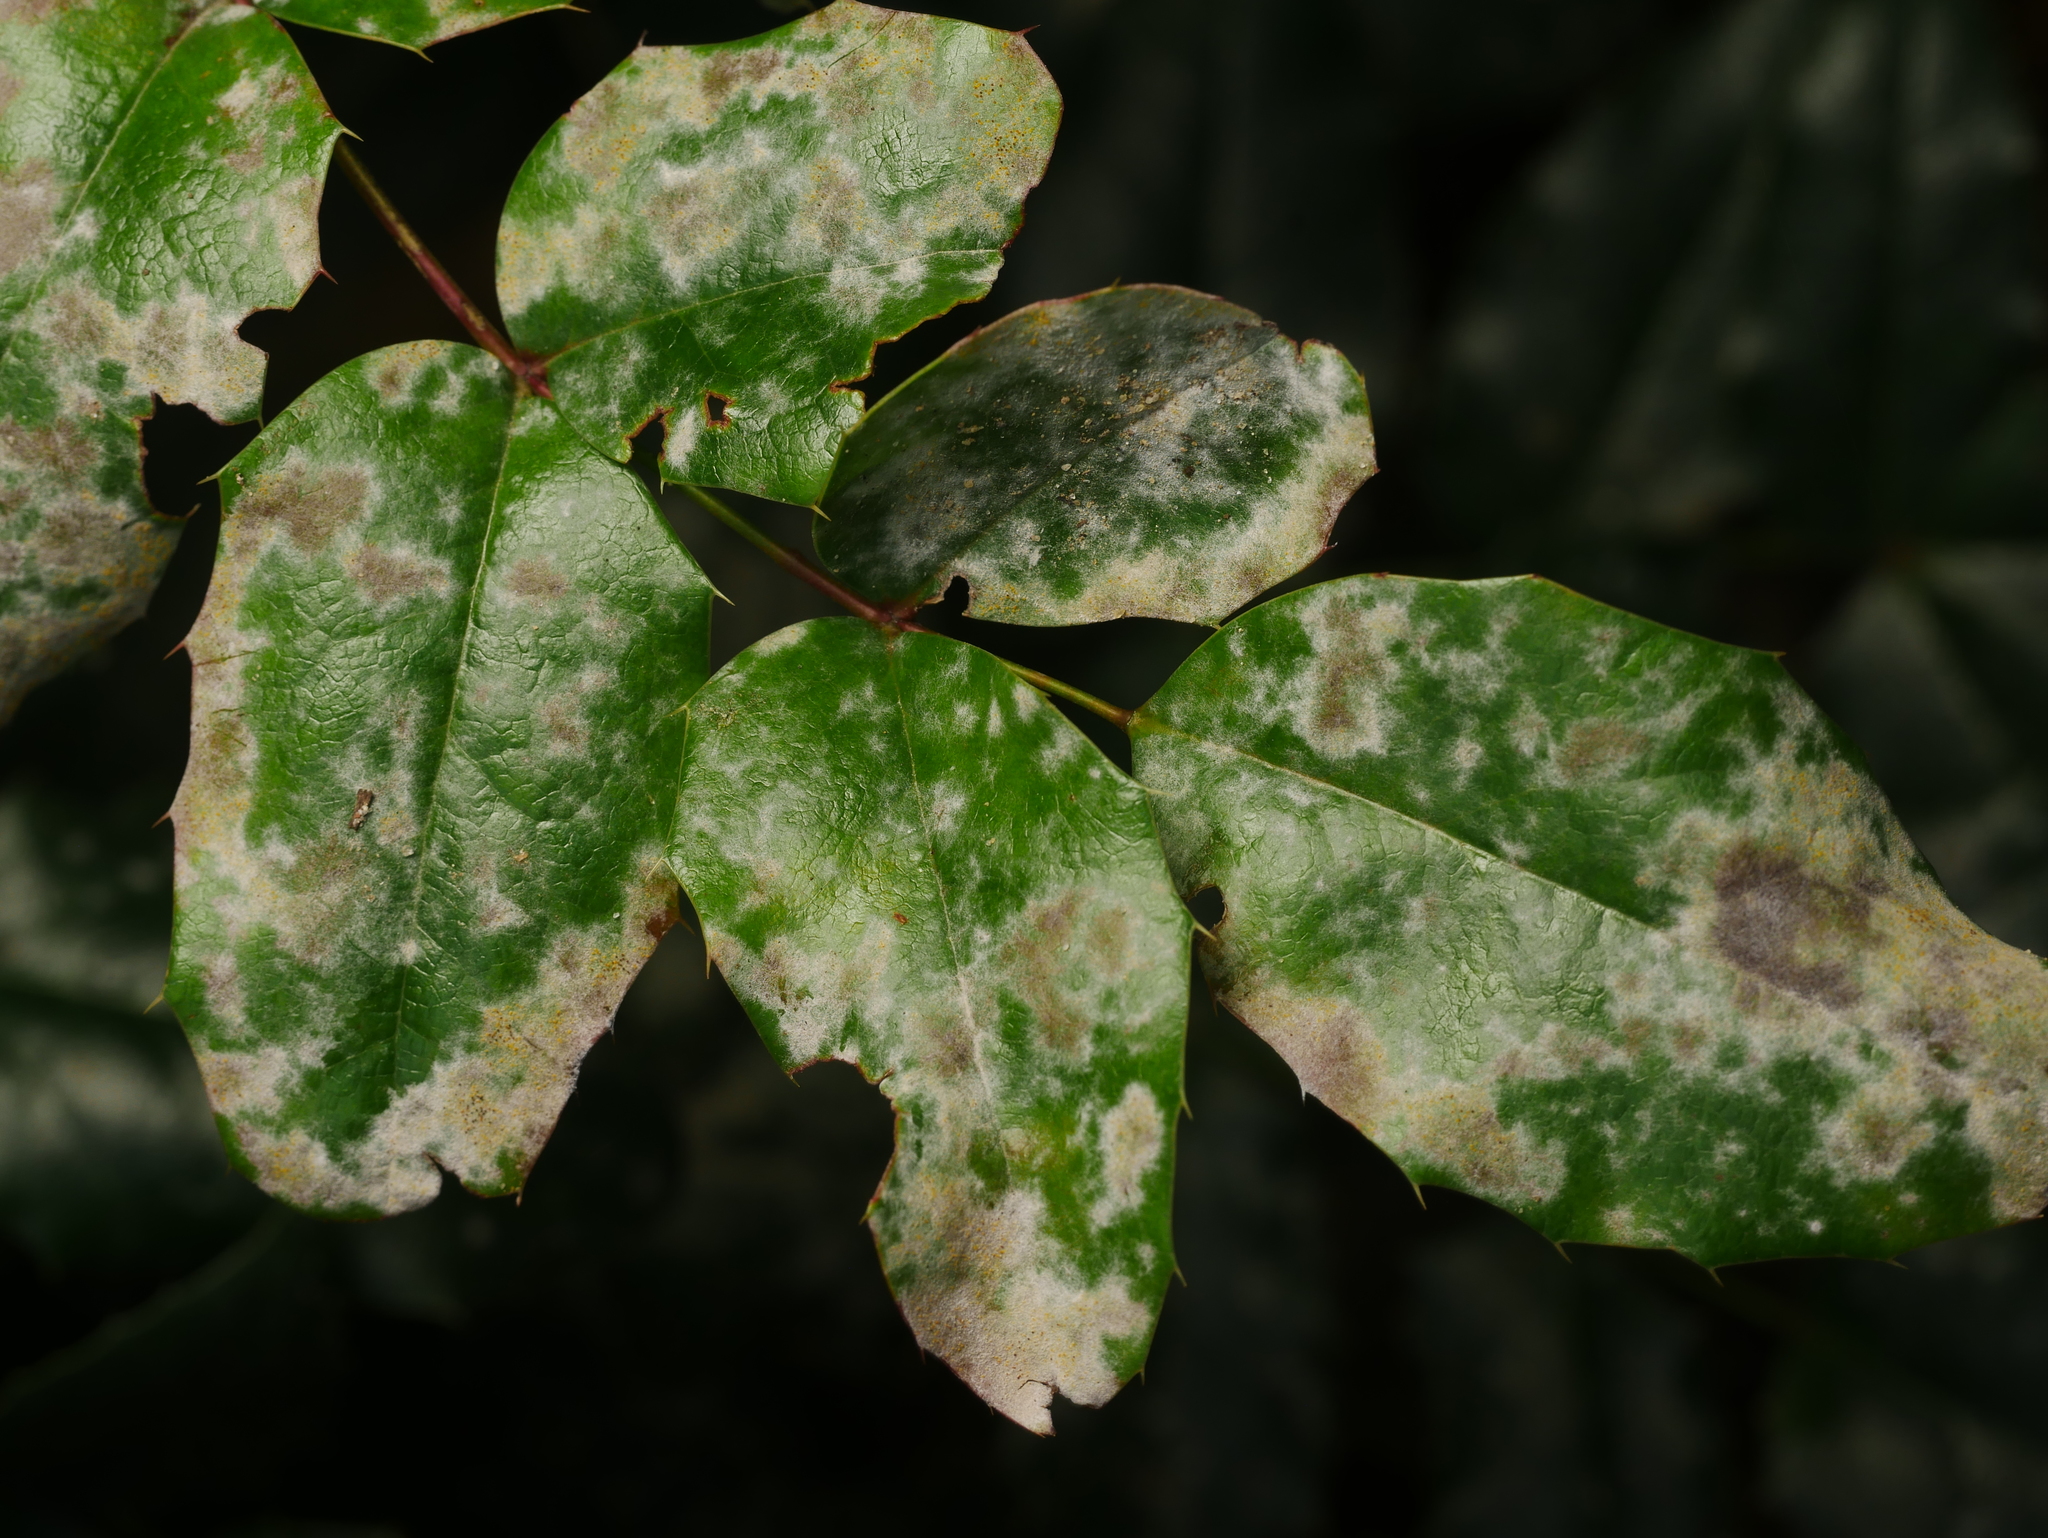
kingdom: Fungi
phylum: Ascomycota
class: Leotiomycetes
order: Helotiales
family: Erysiphaceae
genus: Erysiphe
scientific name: Erysiphe berberidis
